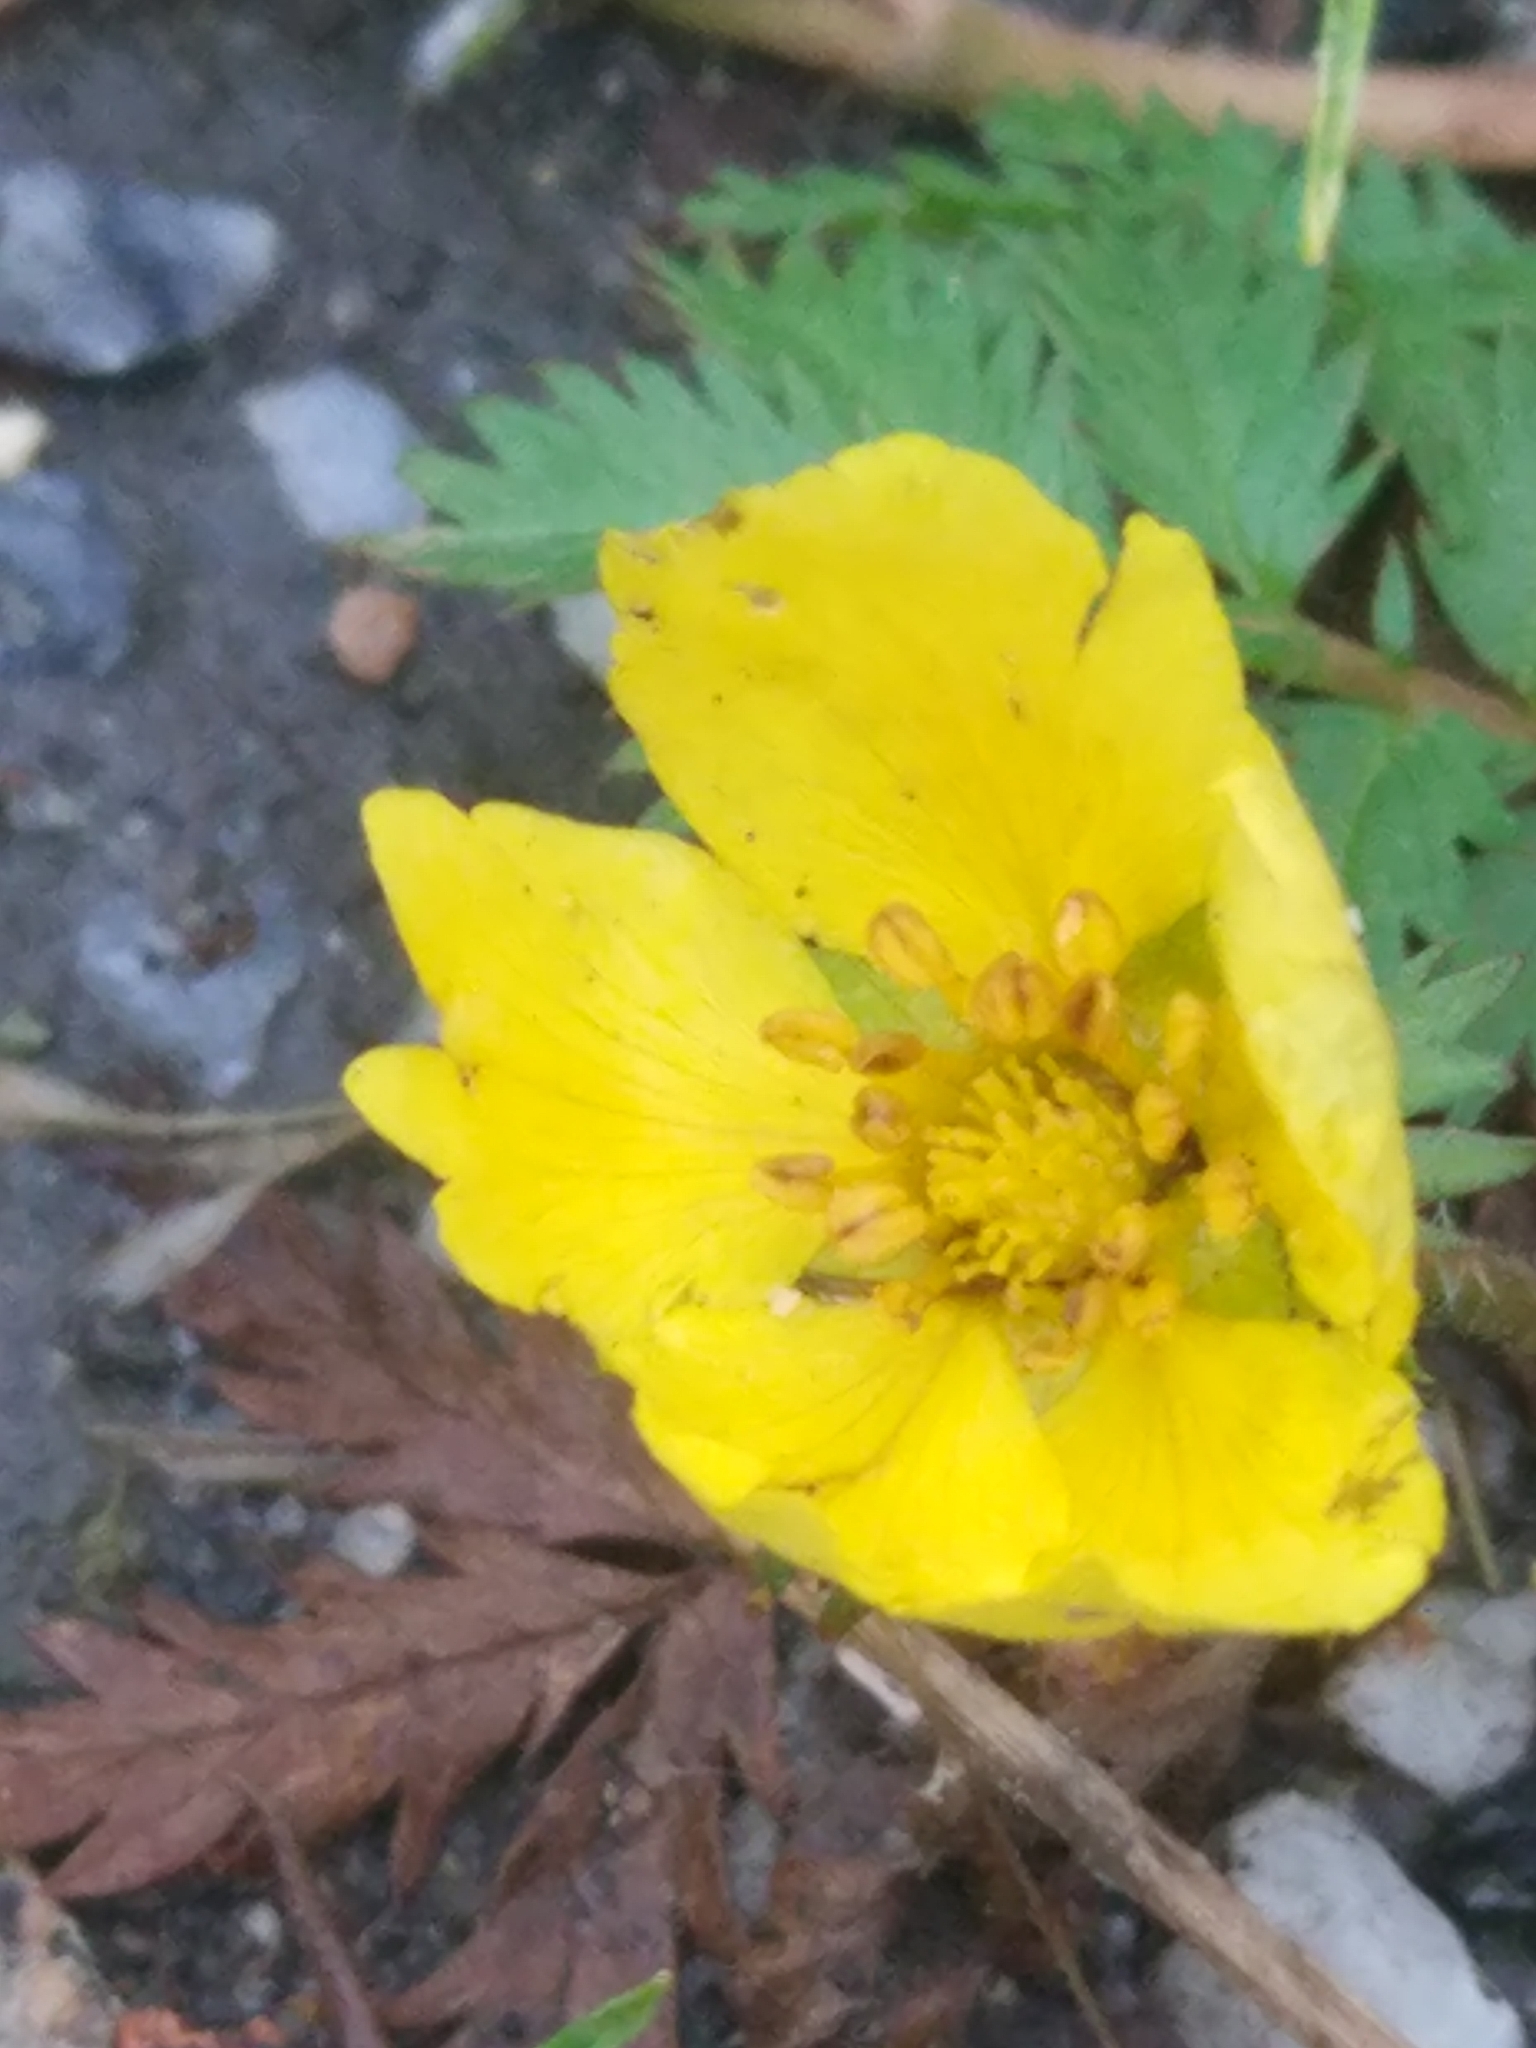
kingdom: Plantae
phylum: Tracheophyta
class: Magnoliopsida
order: Rosales
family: Rosaceae
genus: Argentina
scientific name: Argentina anserina
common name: Common silverweed
